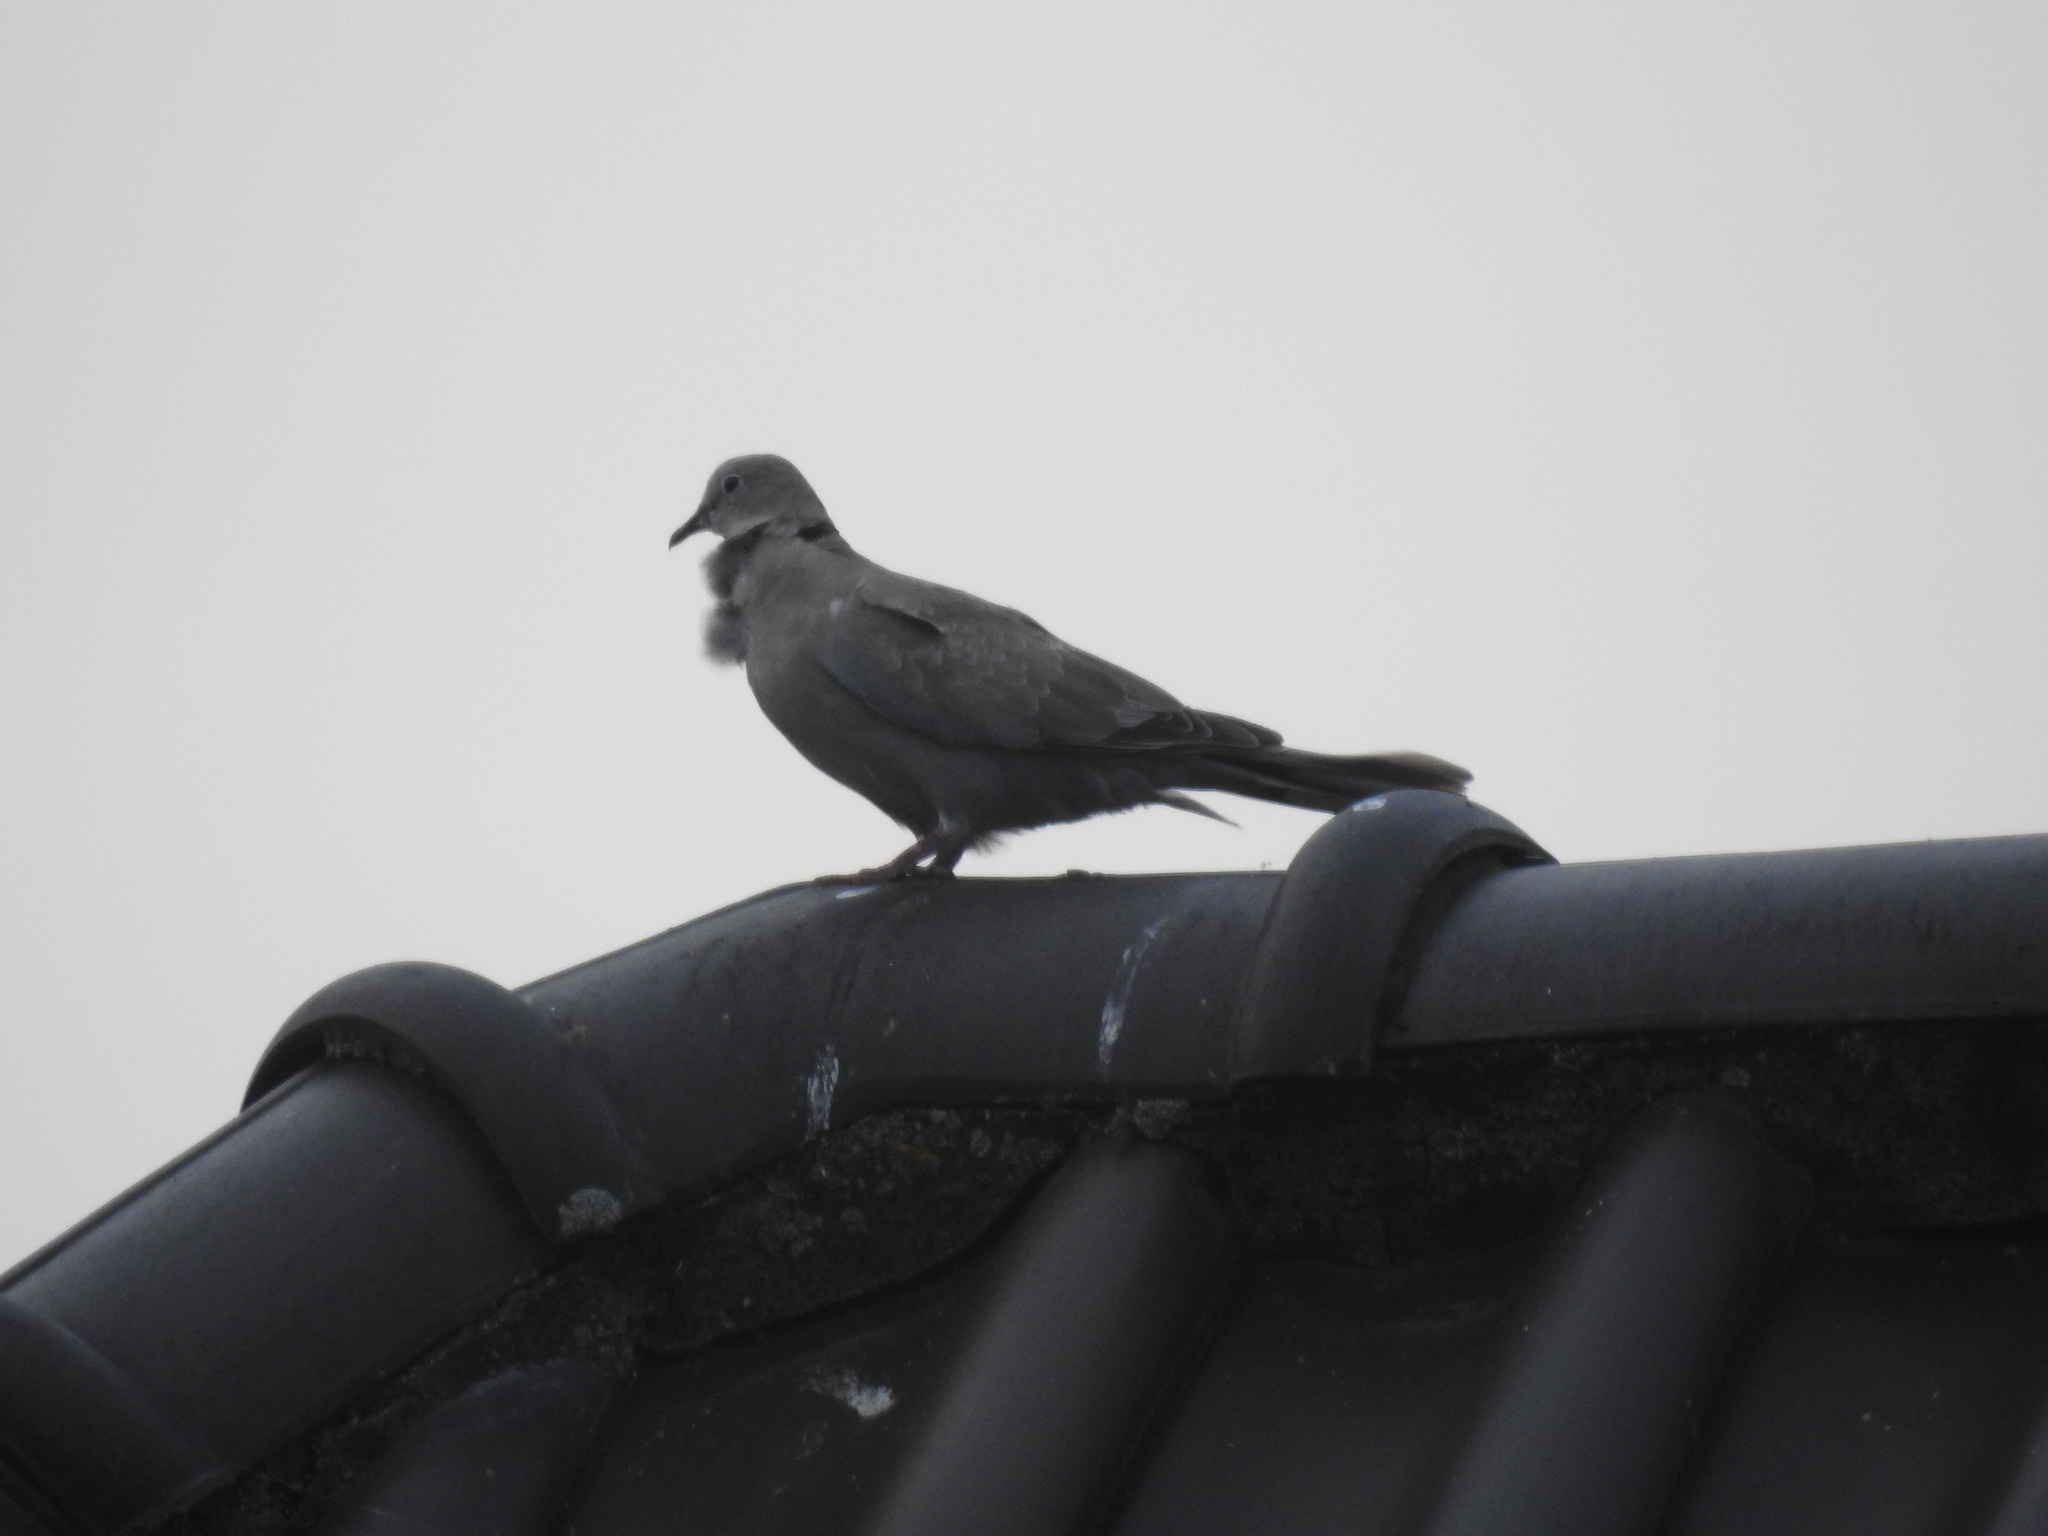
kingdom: Animalia
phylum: Chordata
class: Aves
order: Columbiformes
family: Columbidae
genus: Streptopelia
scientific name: Streptopelia decaocto
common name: Eurasian collared dove
